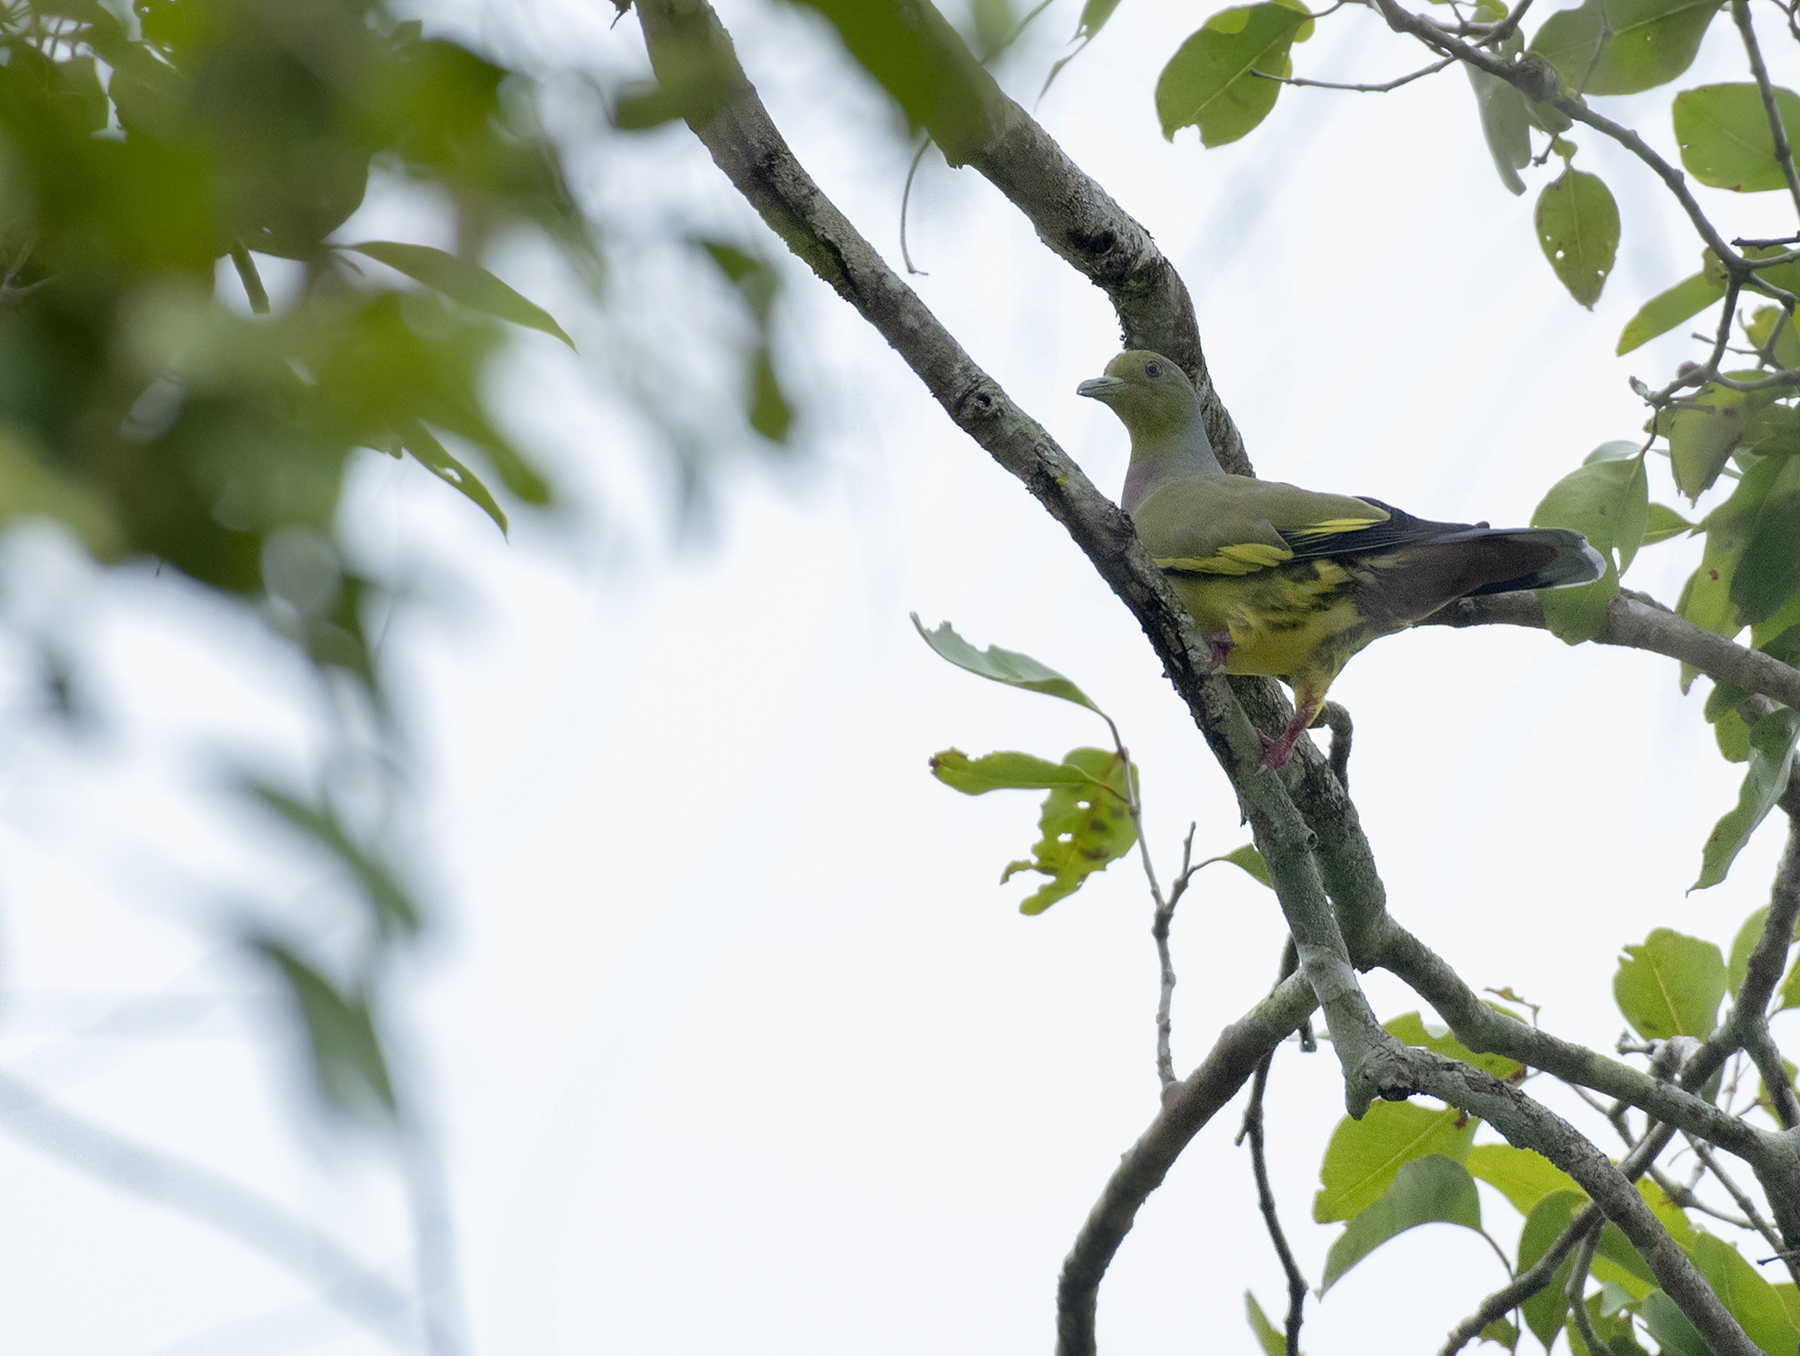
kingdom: Animalia
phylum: Chordata
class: Aves
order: Columbiformes
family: Columbidae
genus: Treron
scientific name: Treron bicinctus
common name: Orange-breasted green pigeon
